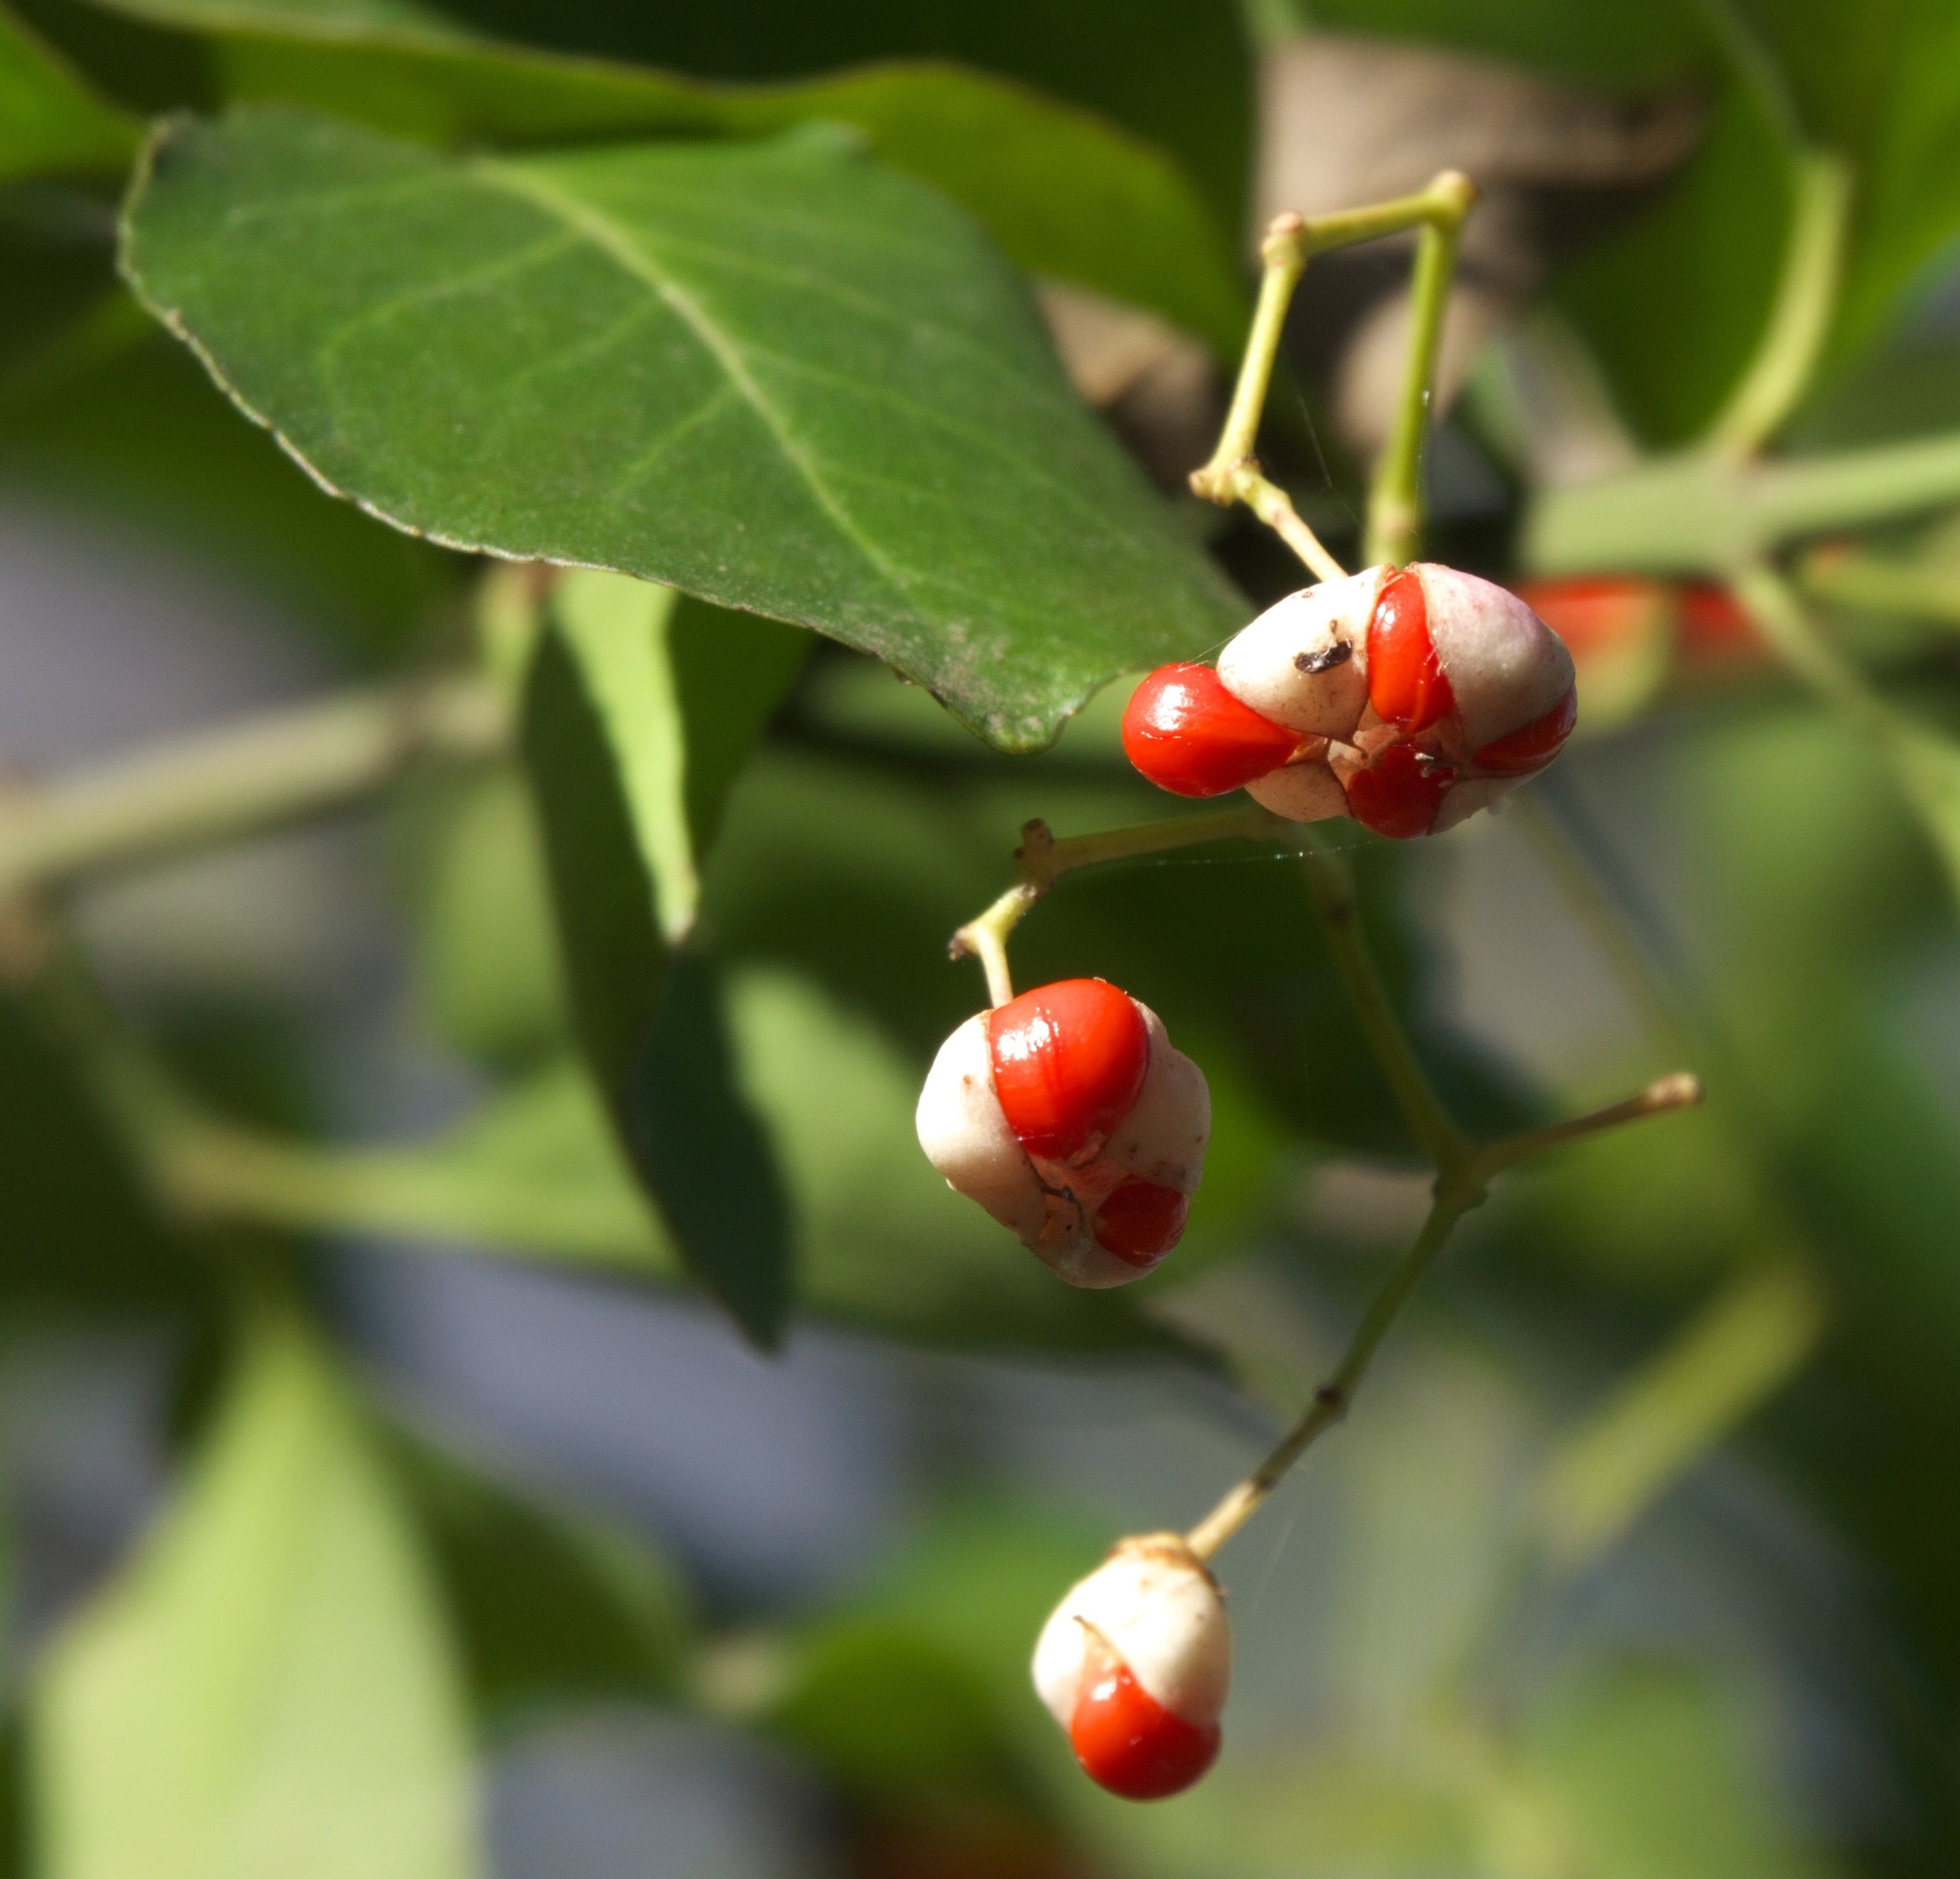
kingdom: Plantae
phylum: Tracheophyta
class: Magnoliopsida
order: Celastrales
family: Celastraceae
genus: Euonymus
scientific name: Euonymus fortunei
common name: Climbing euonymus
